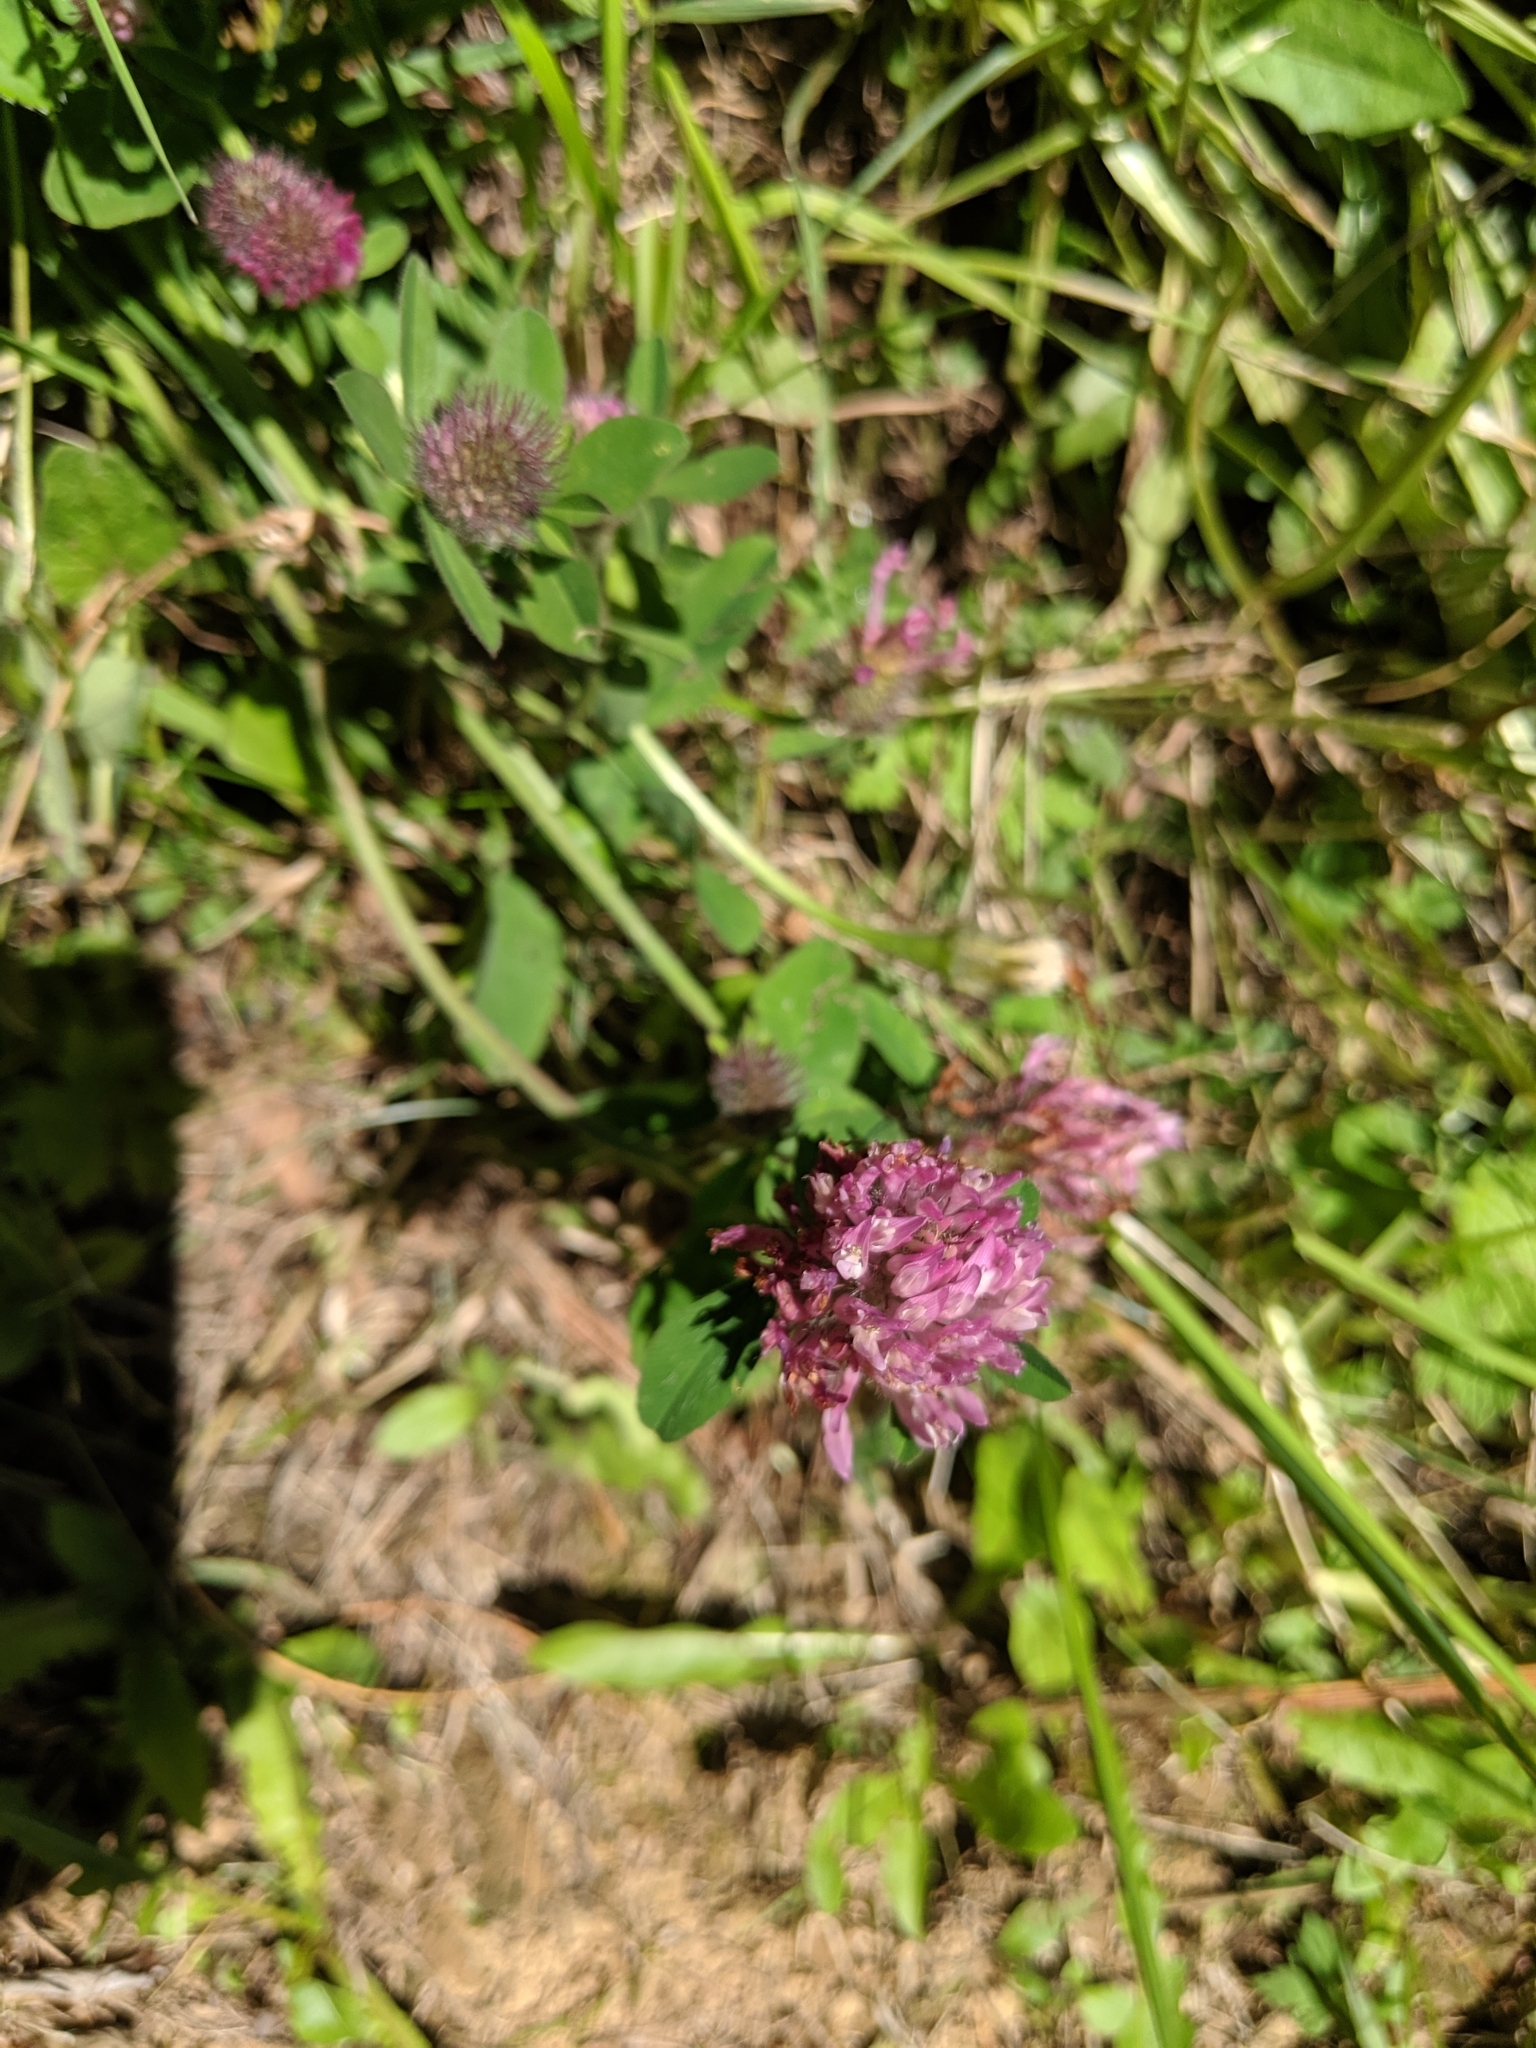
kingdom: Plantae
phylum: Tracheophyta
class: Magnoliopsida
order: Fabales
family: Fabaceae
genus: Trifolium
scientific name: Trifolium pratense
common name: Red clover
